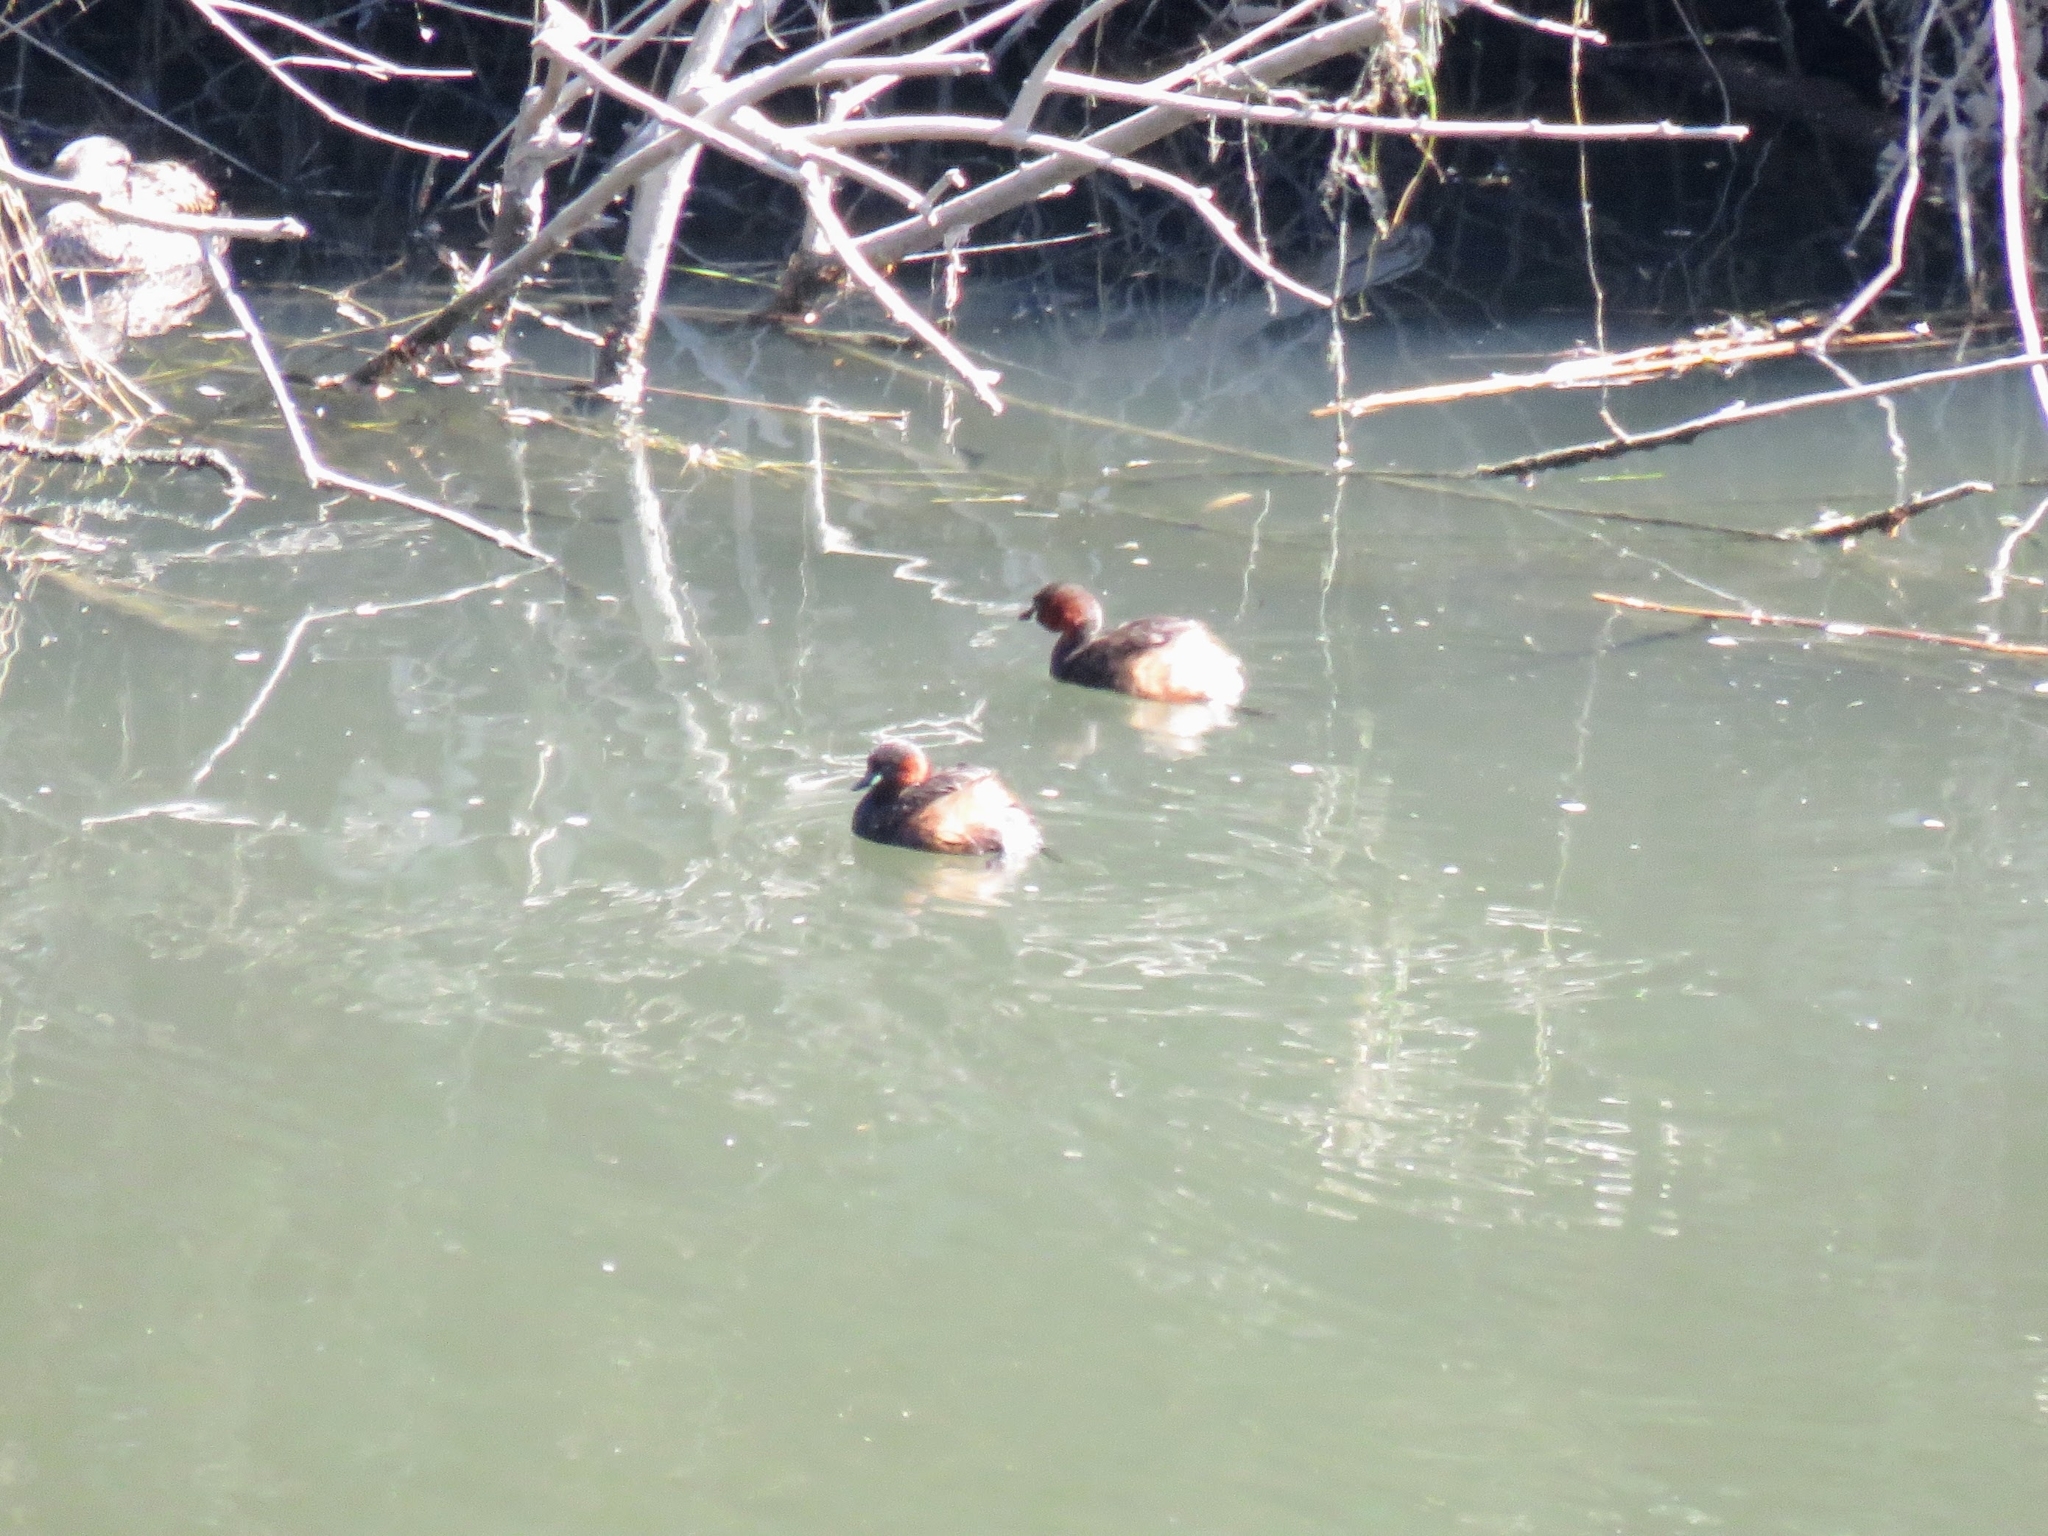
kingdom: Animalia
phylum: Chordata
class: Aves
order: Podicipediformes
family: Podicipedidae
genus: Tachybaptus
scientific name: Tachybaptus ruficollis
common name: Little grebe
